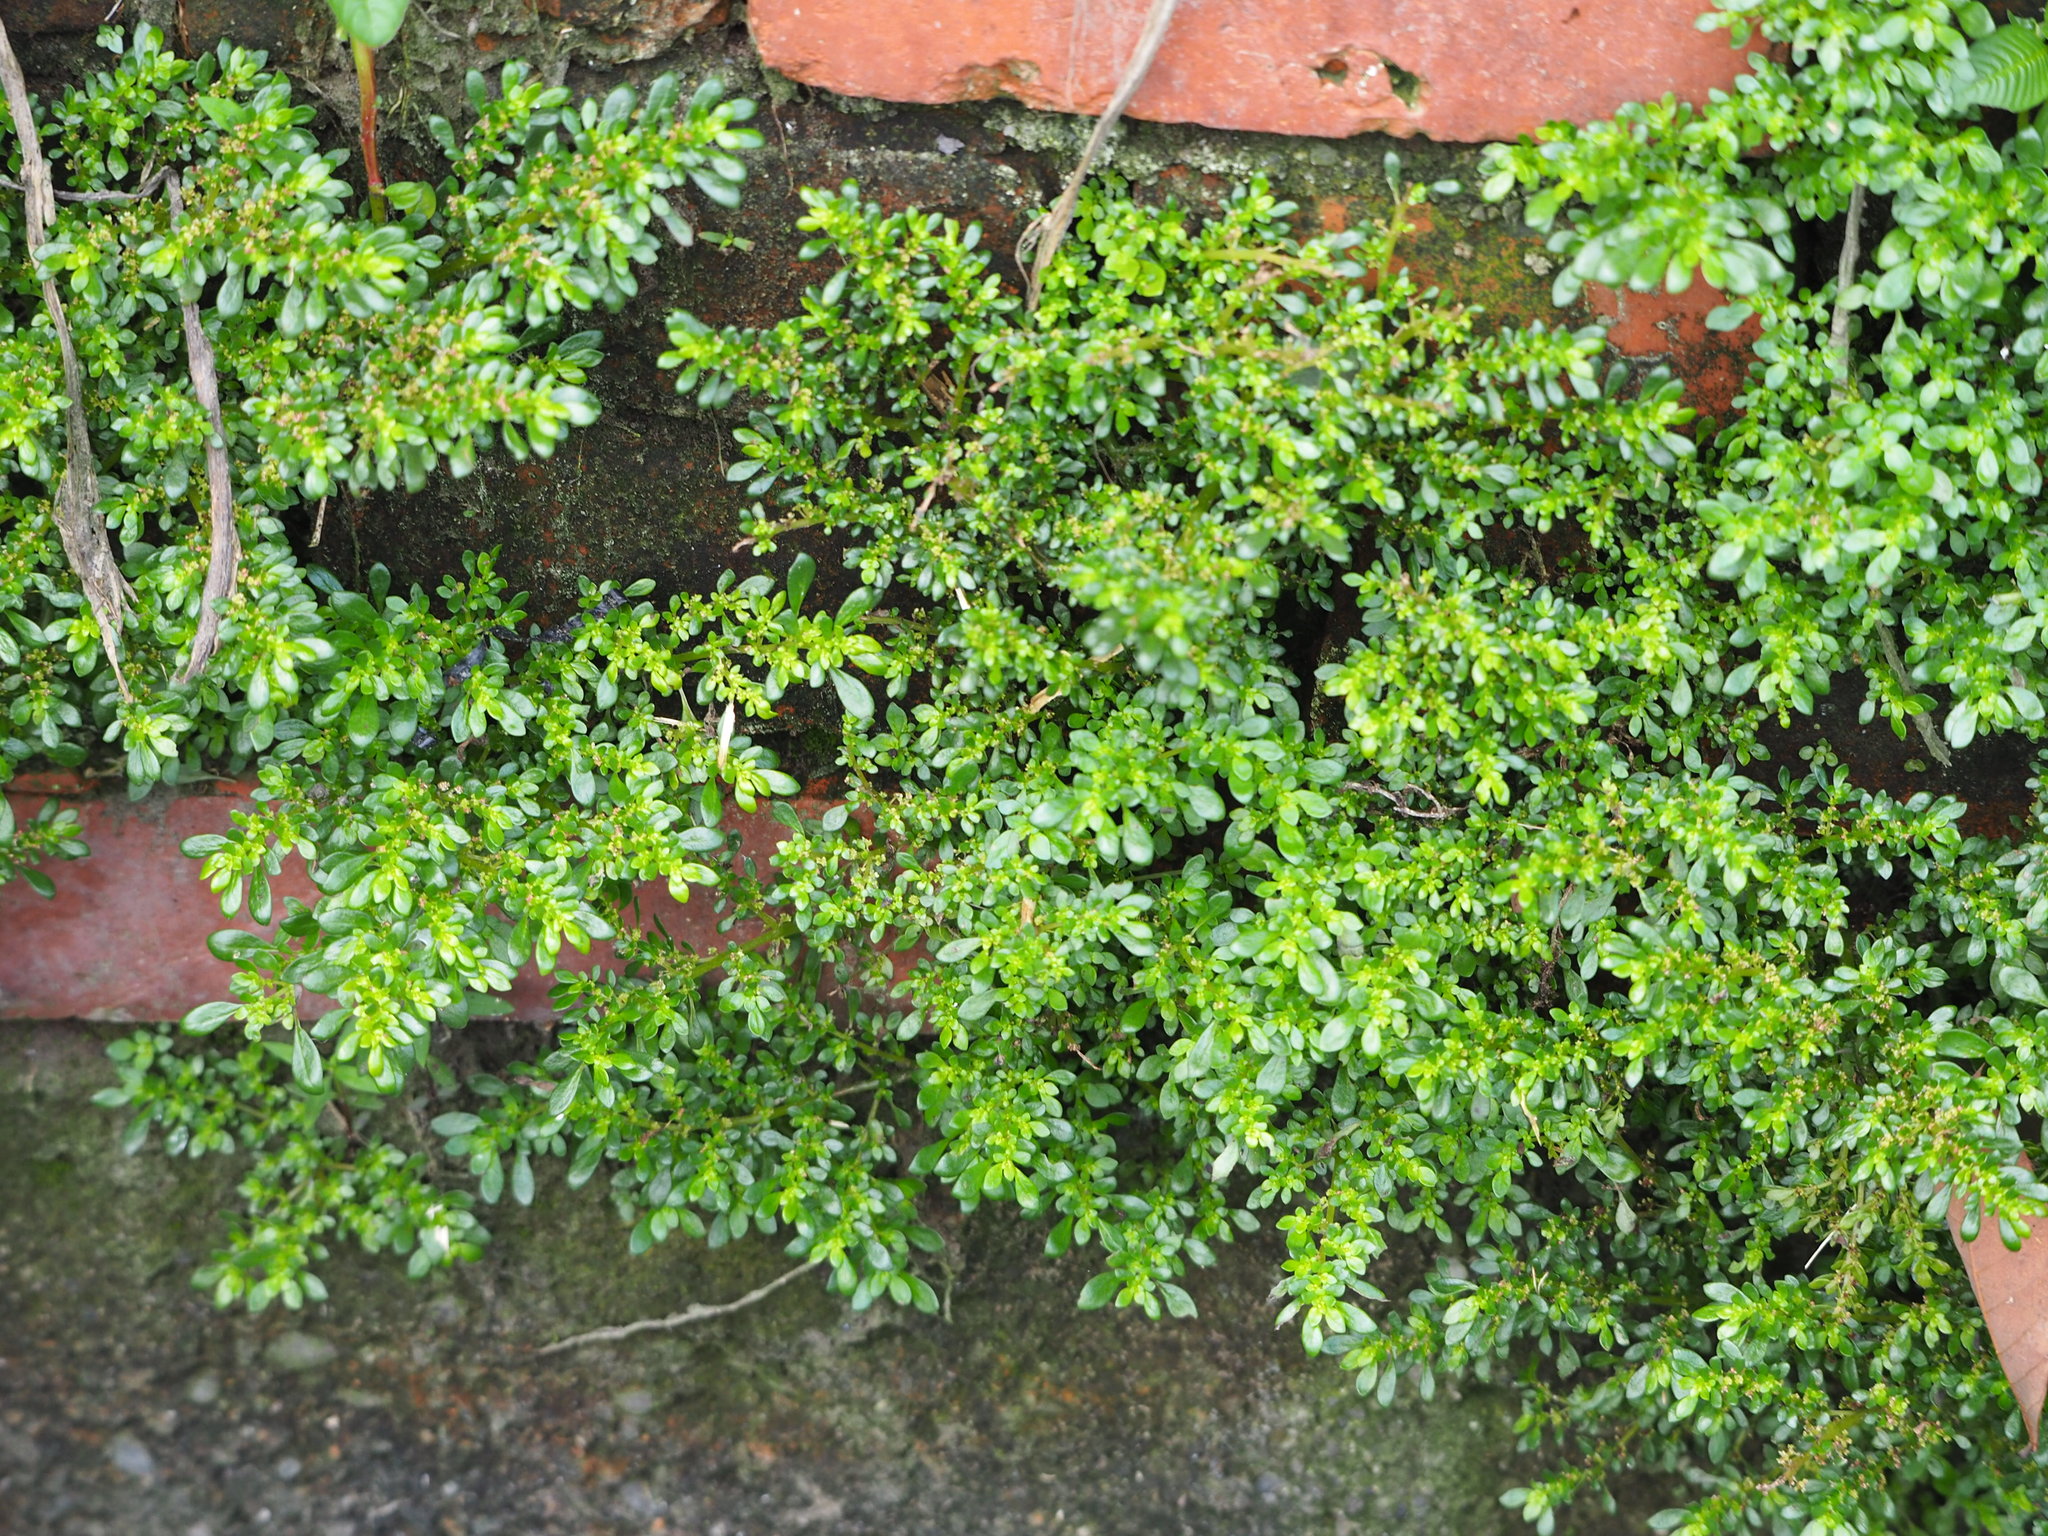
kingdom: Plantae
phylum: Tracheophyta
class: Magnoliopsida
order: Rosales
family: Urticaceae
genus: Pilea
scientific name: Pilea microphylla
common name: Artillery-plant
